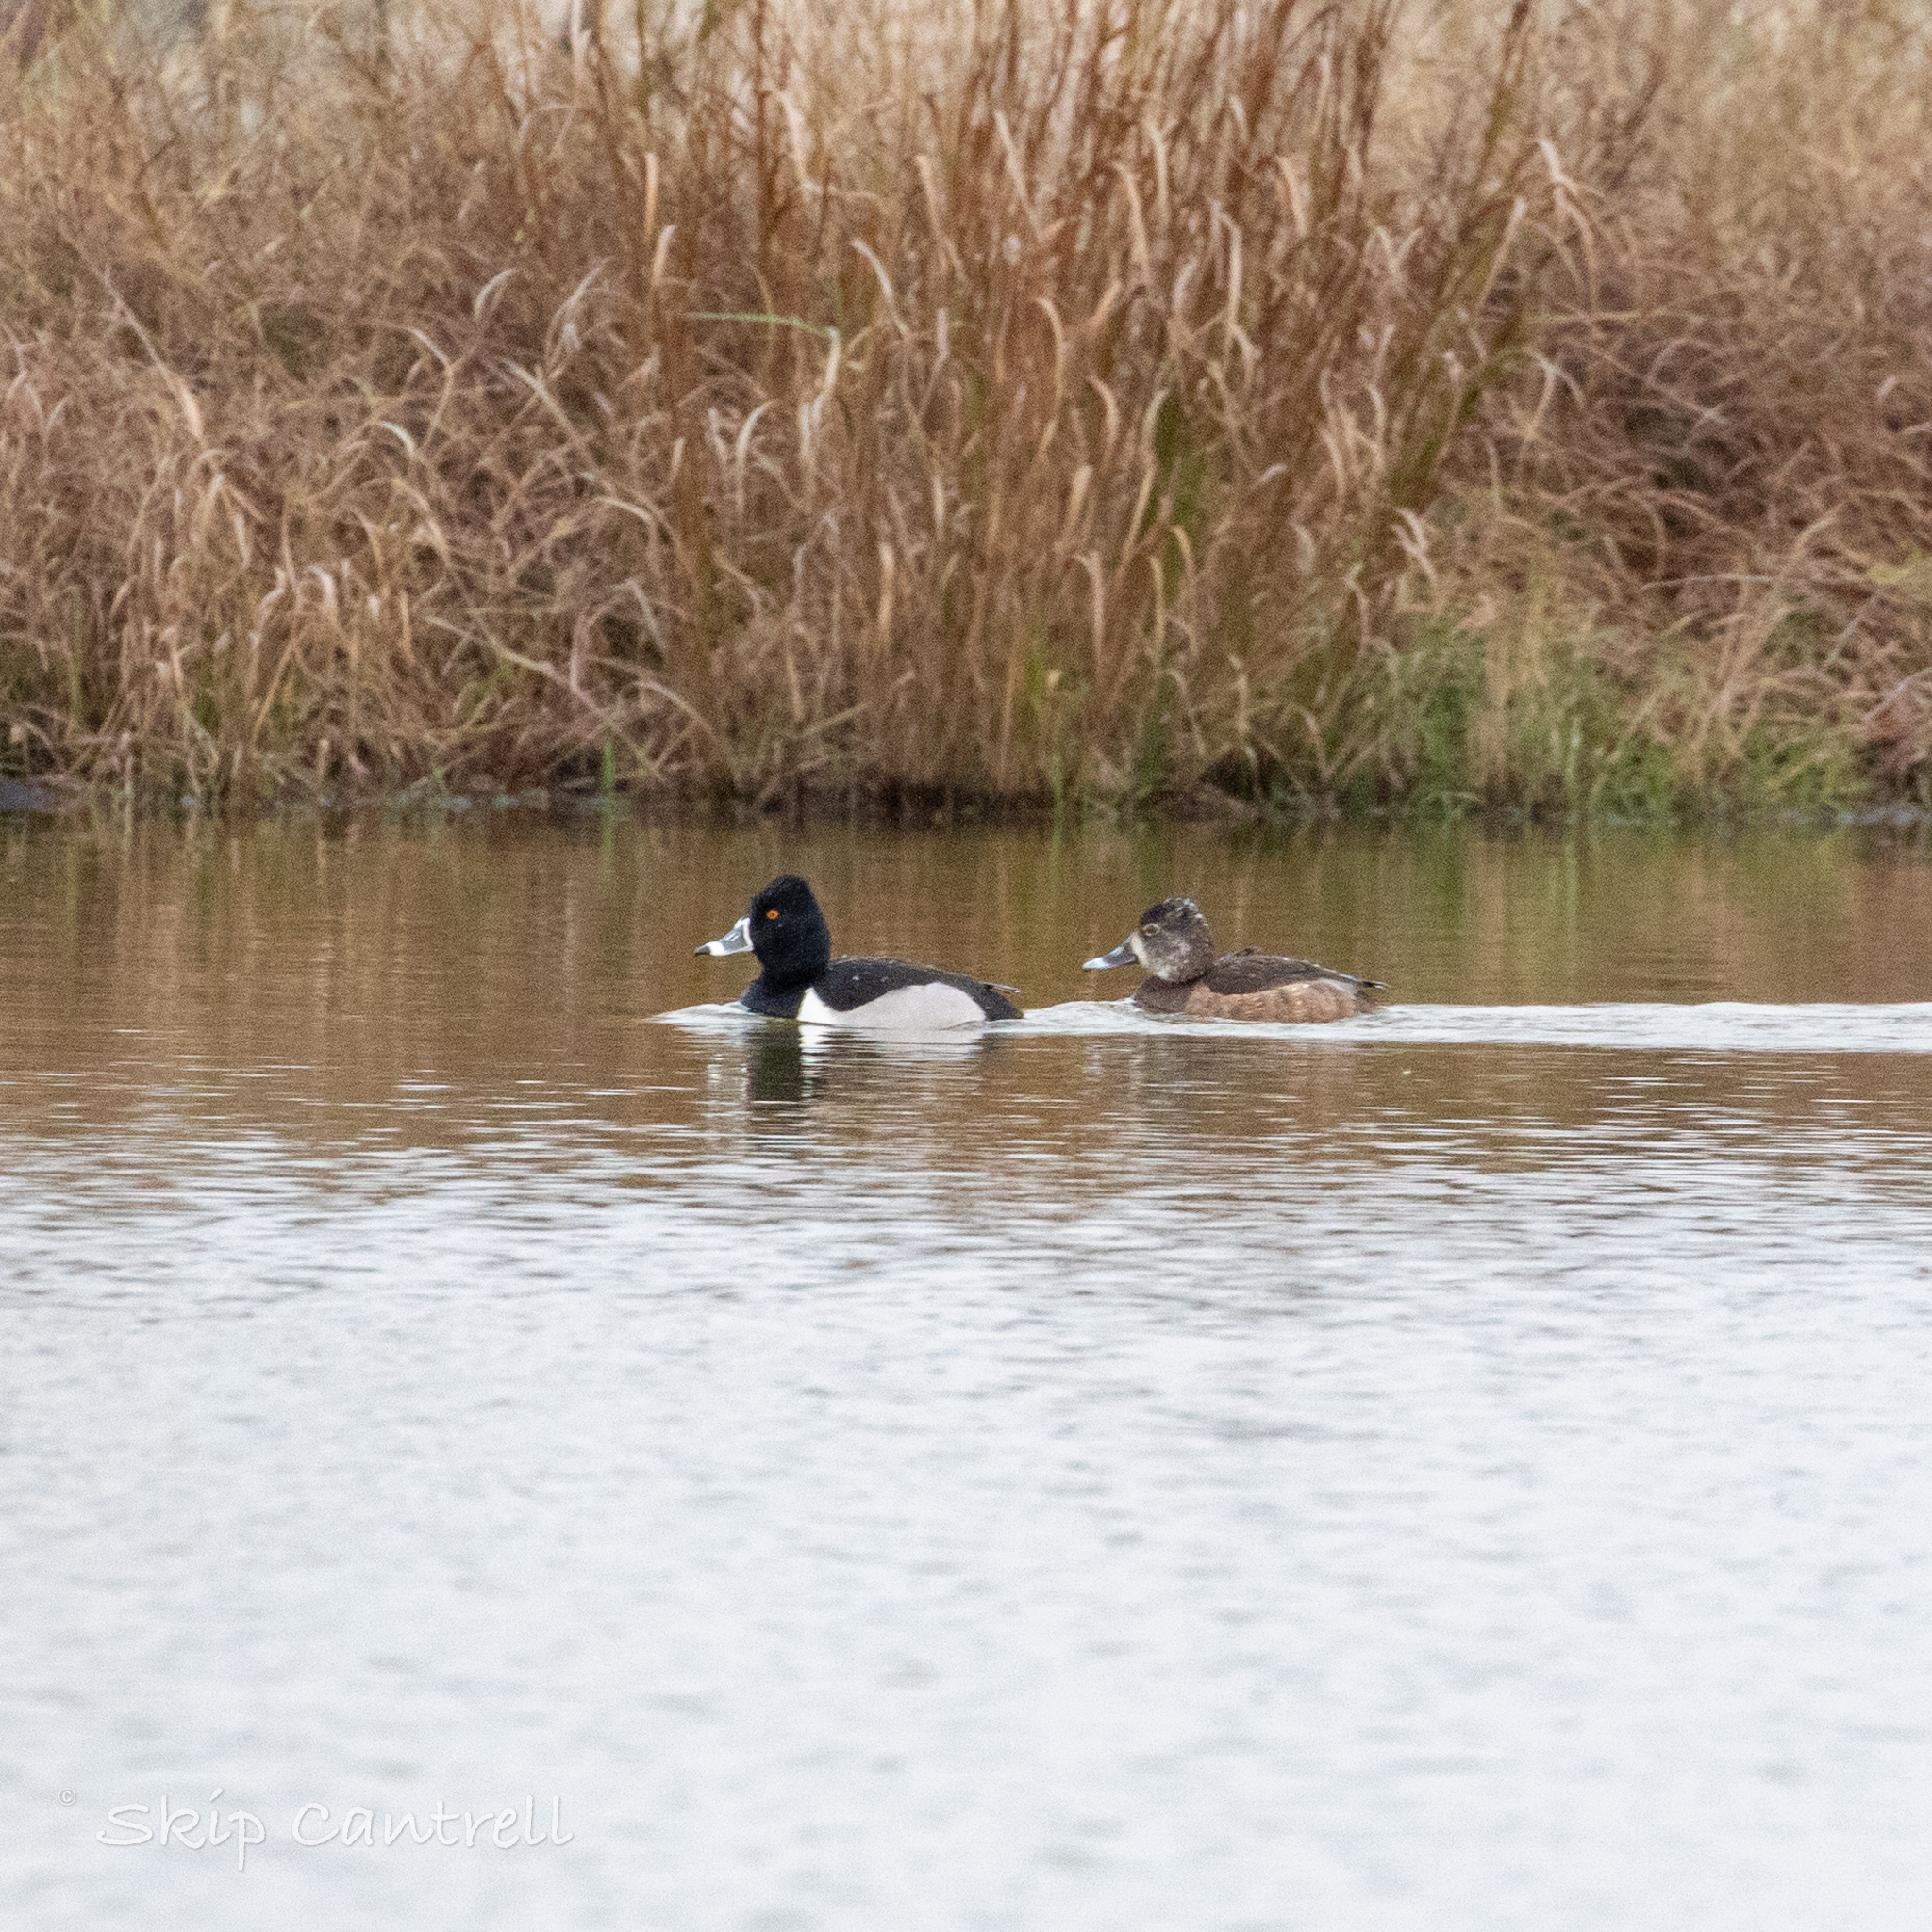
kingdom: Animalia
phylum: Chordata
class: Aves
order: Anseriformes
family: Anatidae
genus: Aythya
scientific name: Aythya collaris
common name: Ring-necked duck
